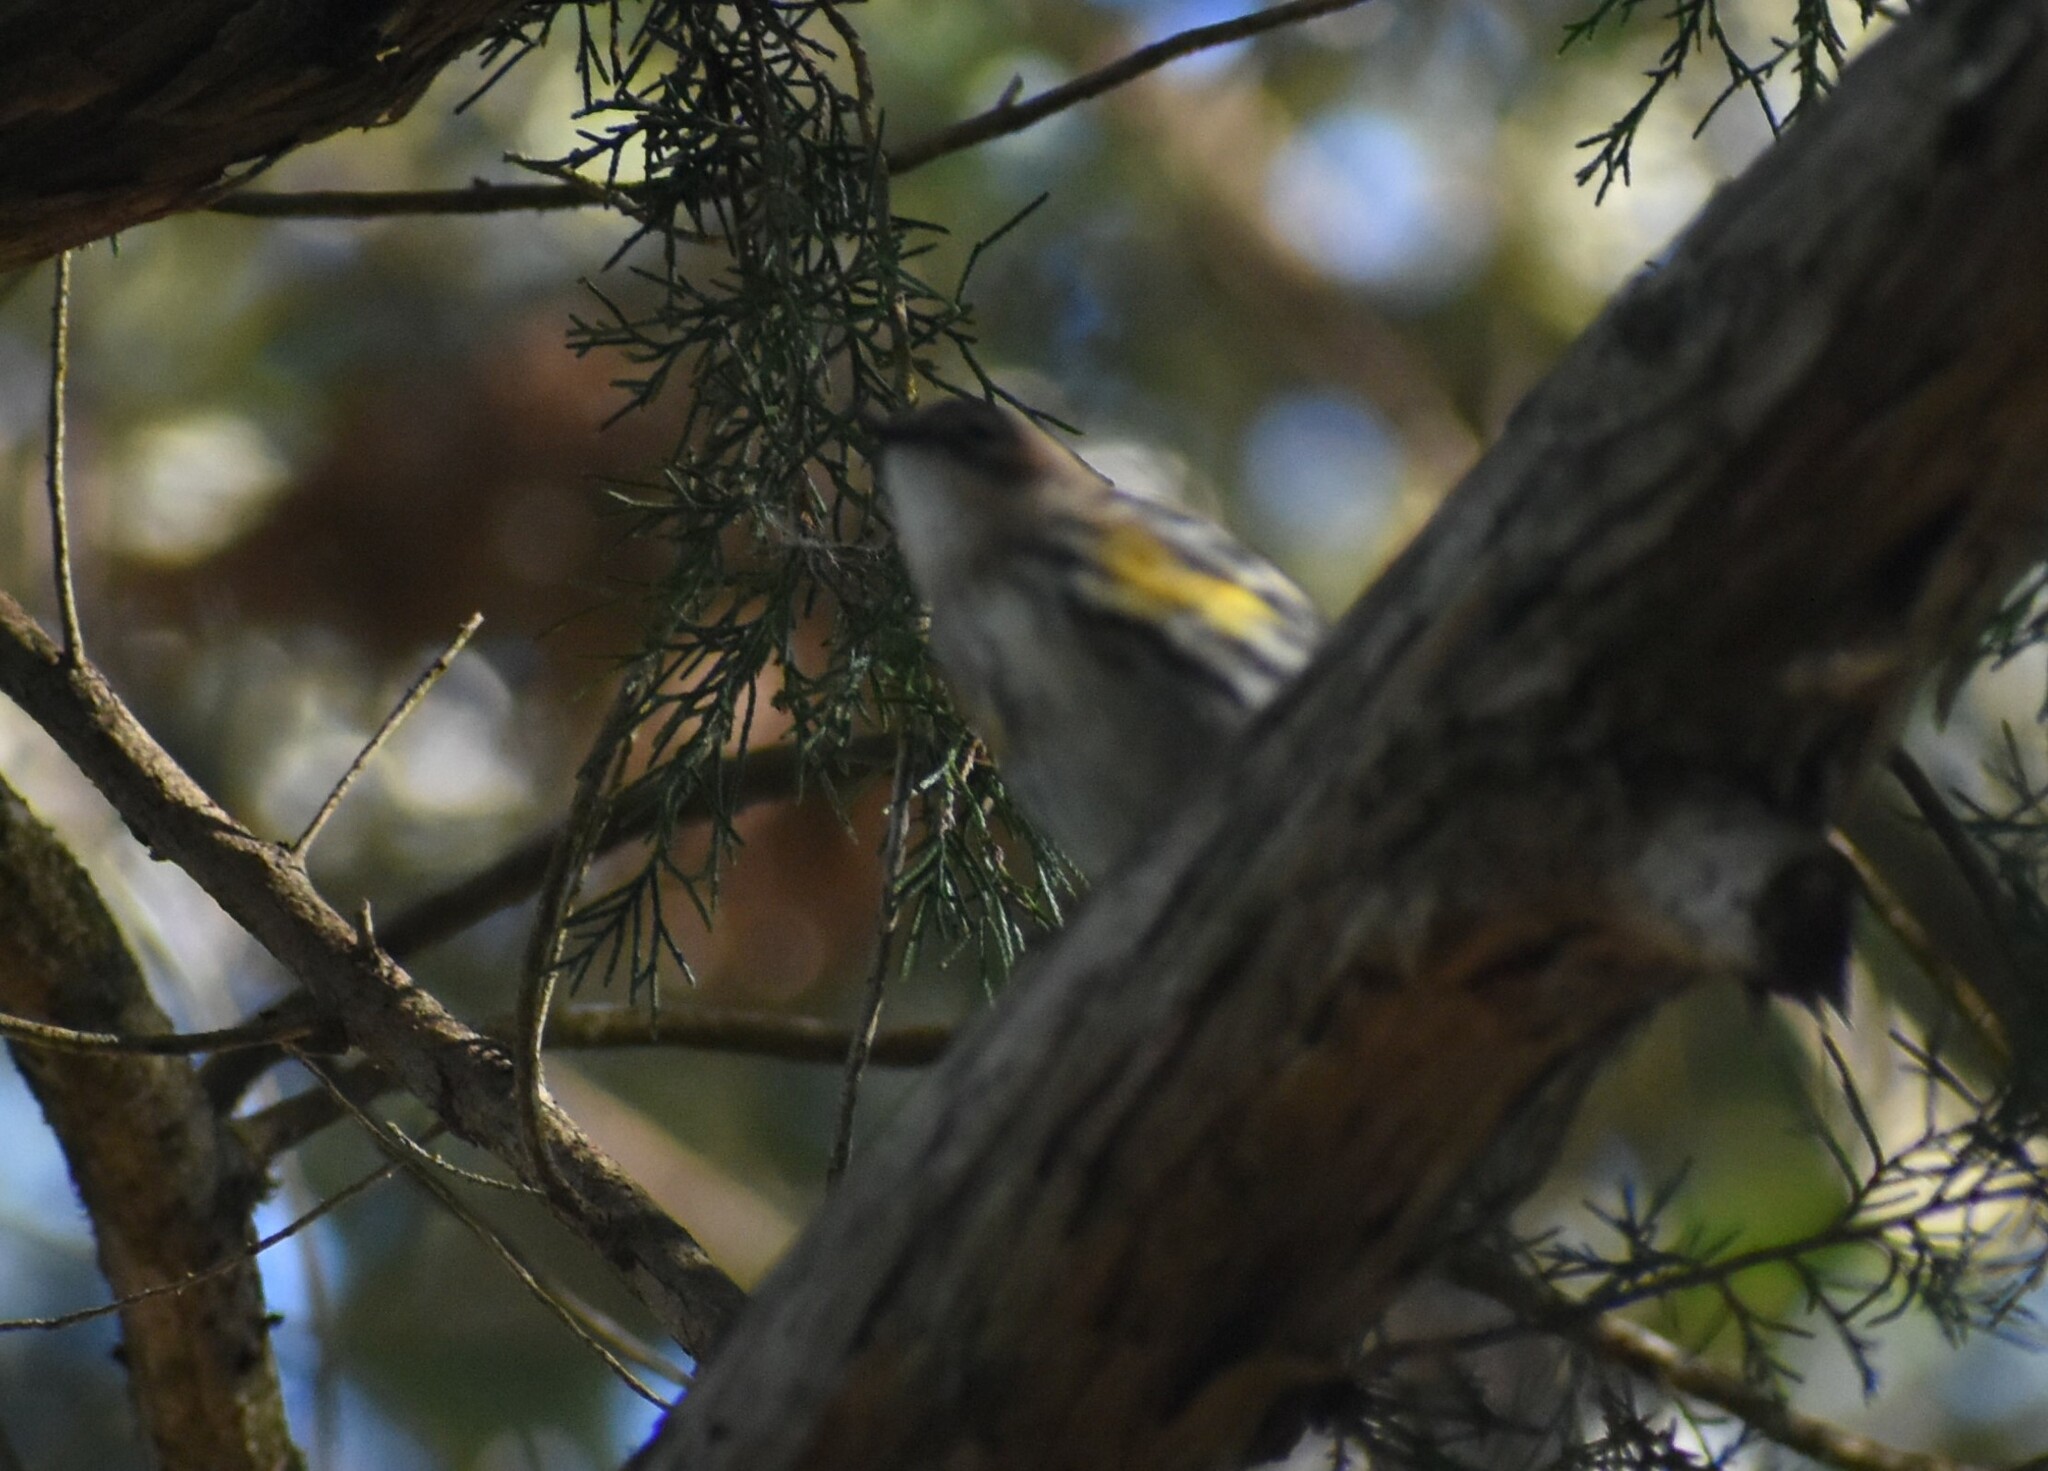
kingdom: Animalia
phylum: Chordata
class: Aves
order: Passeriformes
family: Parulidae
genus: Setophaga
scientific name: Setophaga coronata
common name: Myrtle warbler
